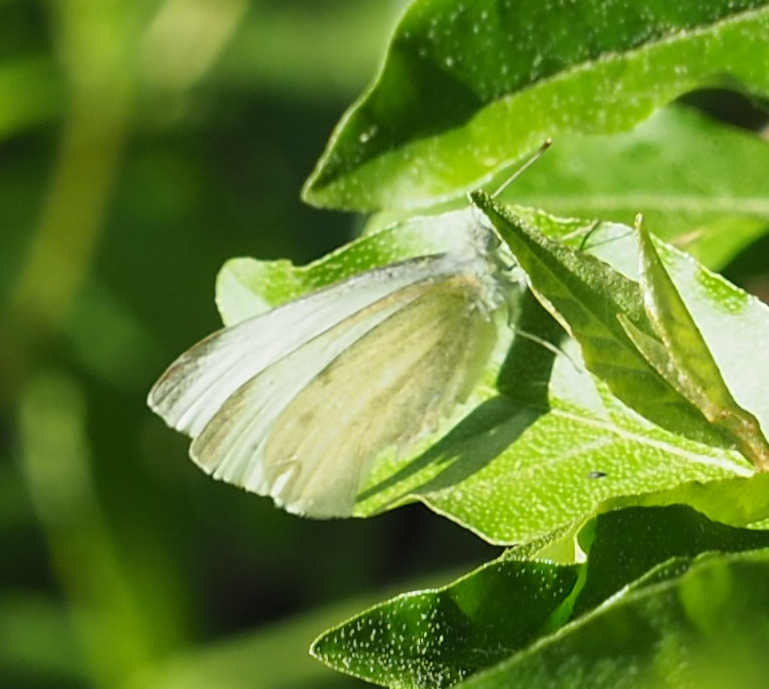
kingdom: Animalia
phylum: Arthropoda
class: Insecta
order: Lepidoptera
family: Pieridae
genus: Pieris
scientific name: Pieris rapae
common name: Small white
